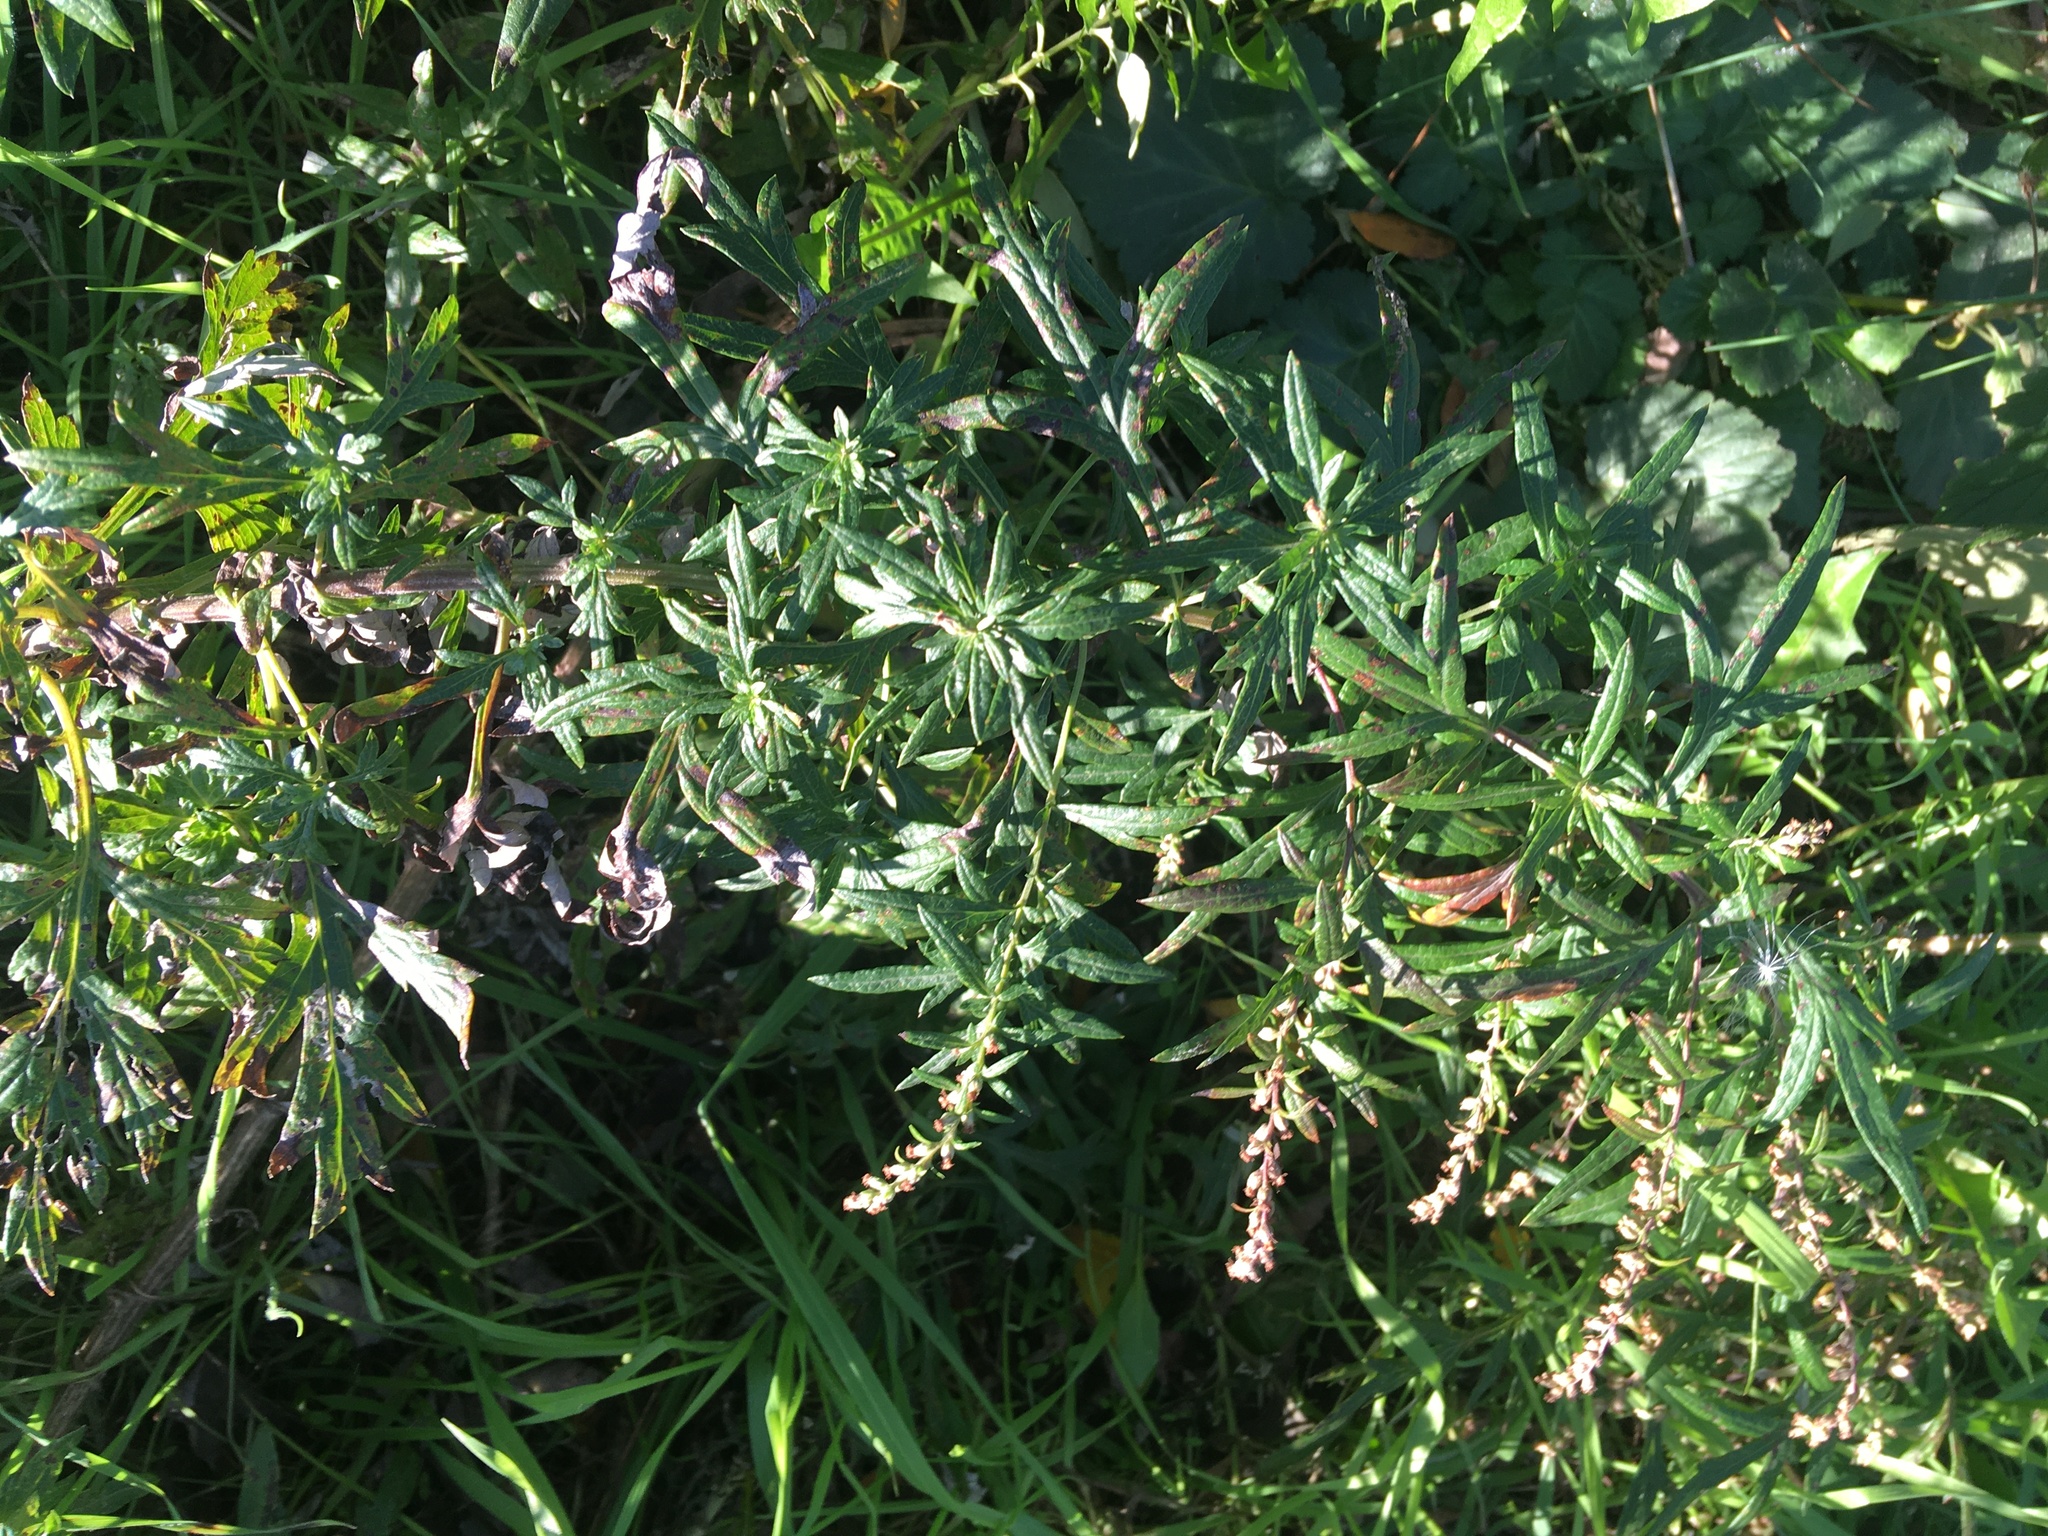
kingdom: Plantae
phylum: Tracheophyta
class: Magnoliopsida
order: Asterales
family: Asteraceae
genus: Artemisia
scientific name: Artemisia vulgaris
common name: Mugwort
